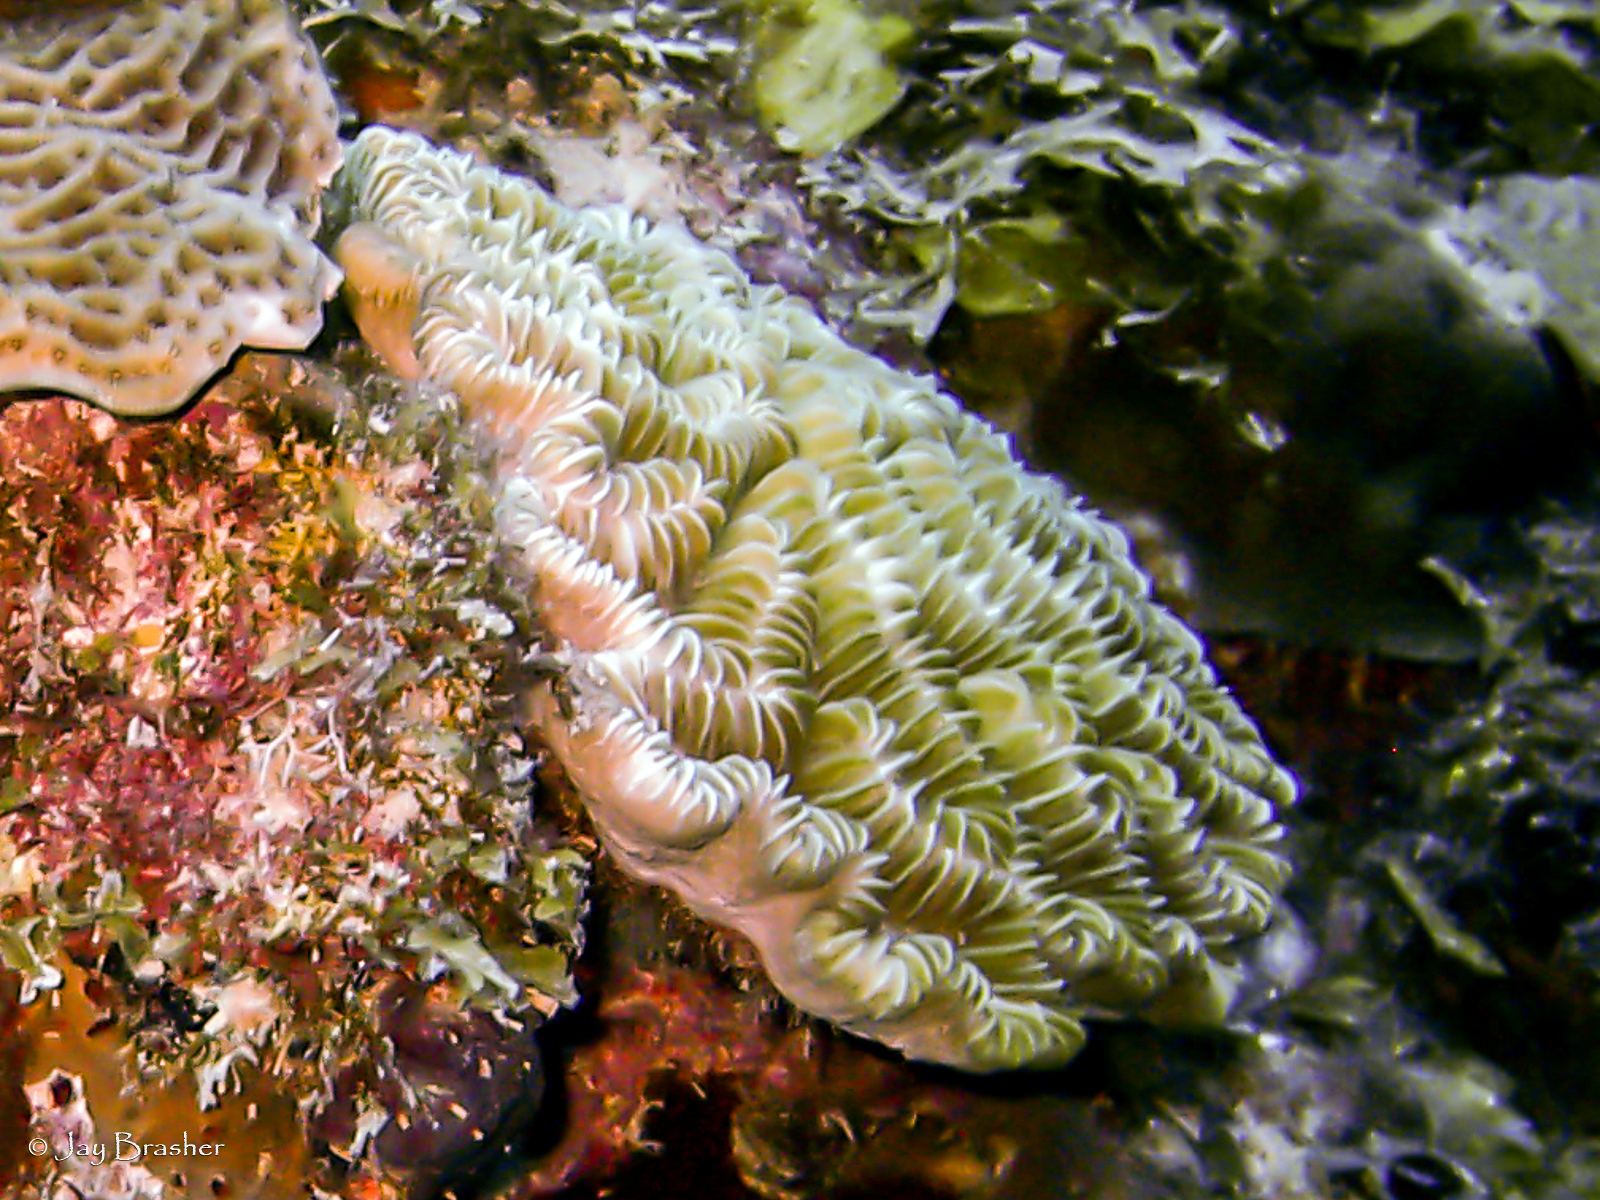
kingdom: Animalia
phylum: Cnidaria
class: Anthozoa
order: Scleractinia
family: Meandrinidae
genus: Meandrina
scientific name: Meandrina meandrites
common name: Maze coral
